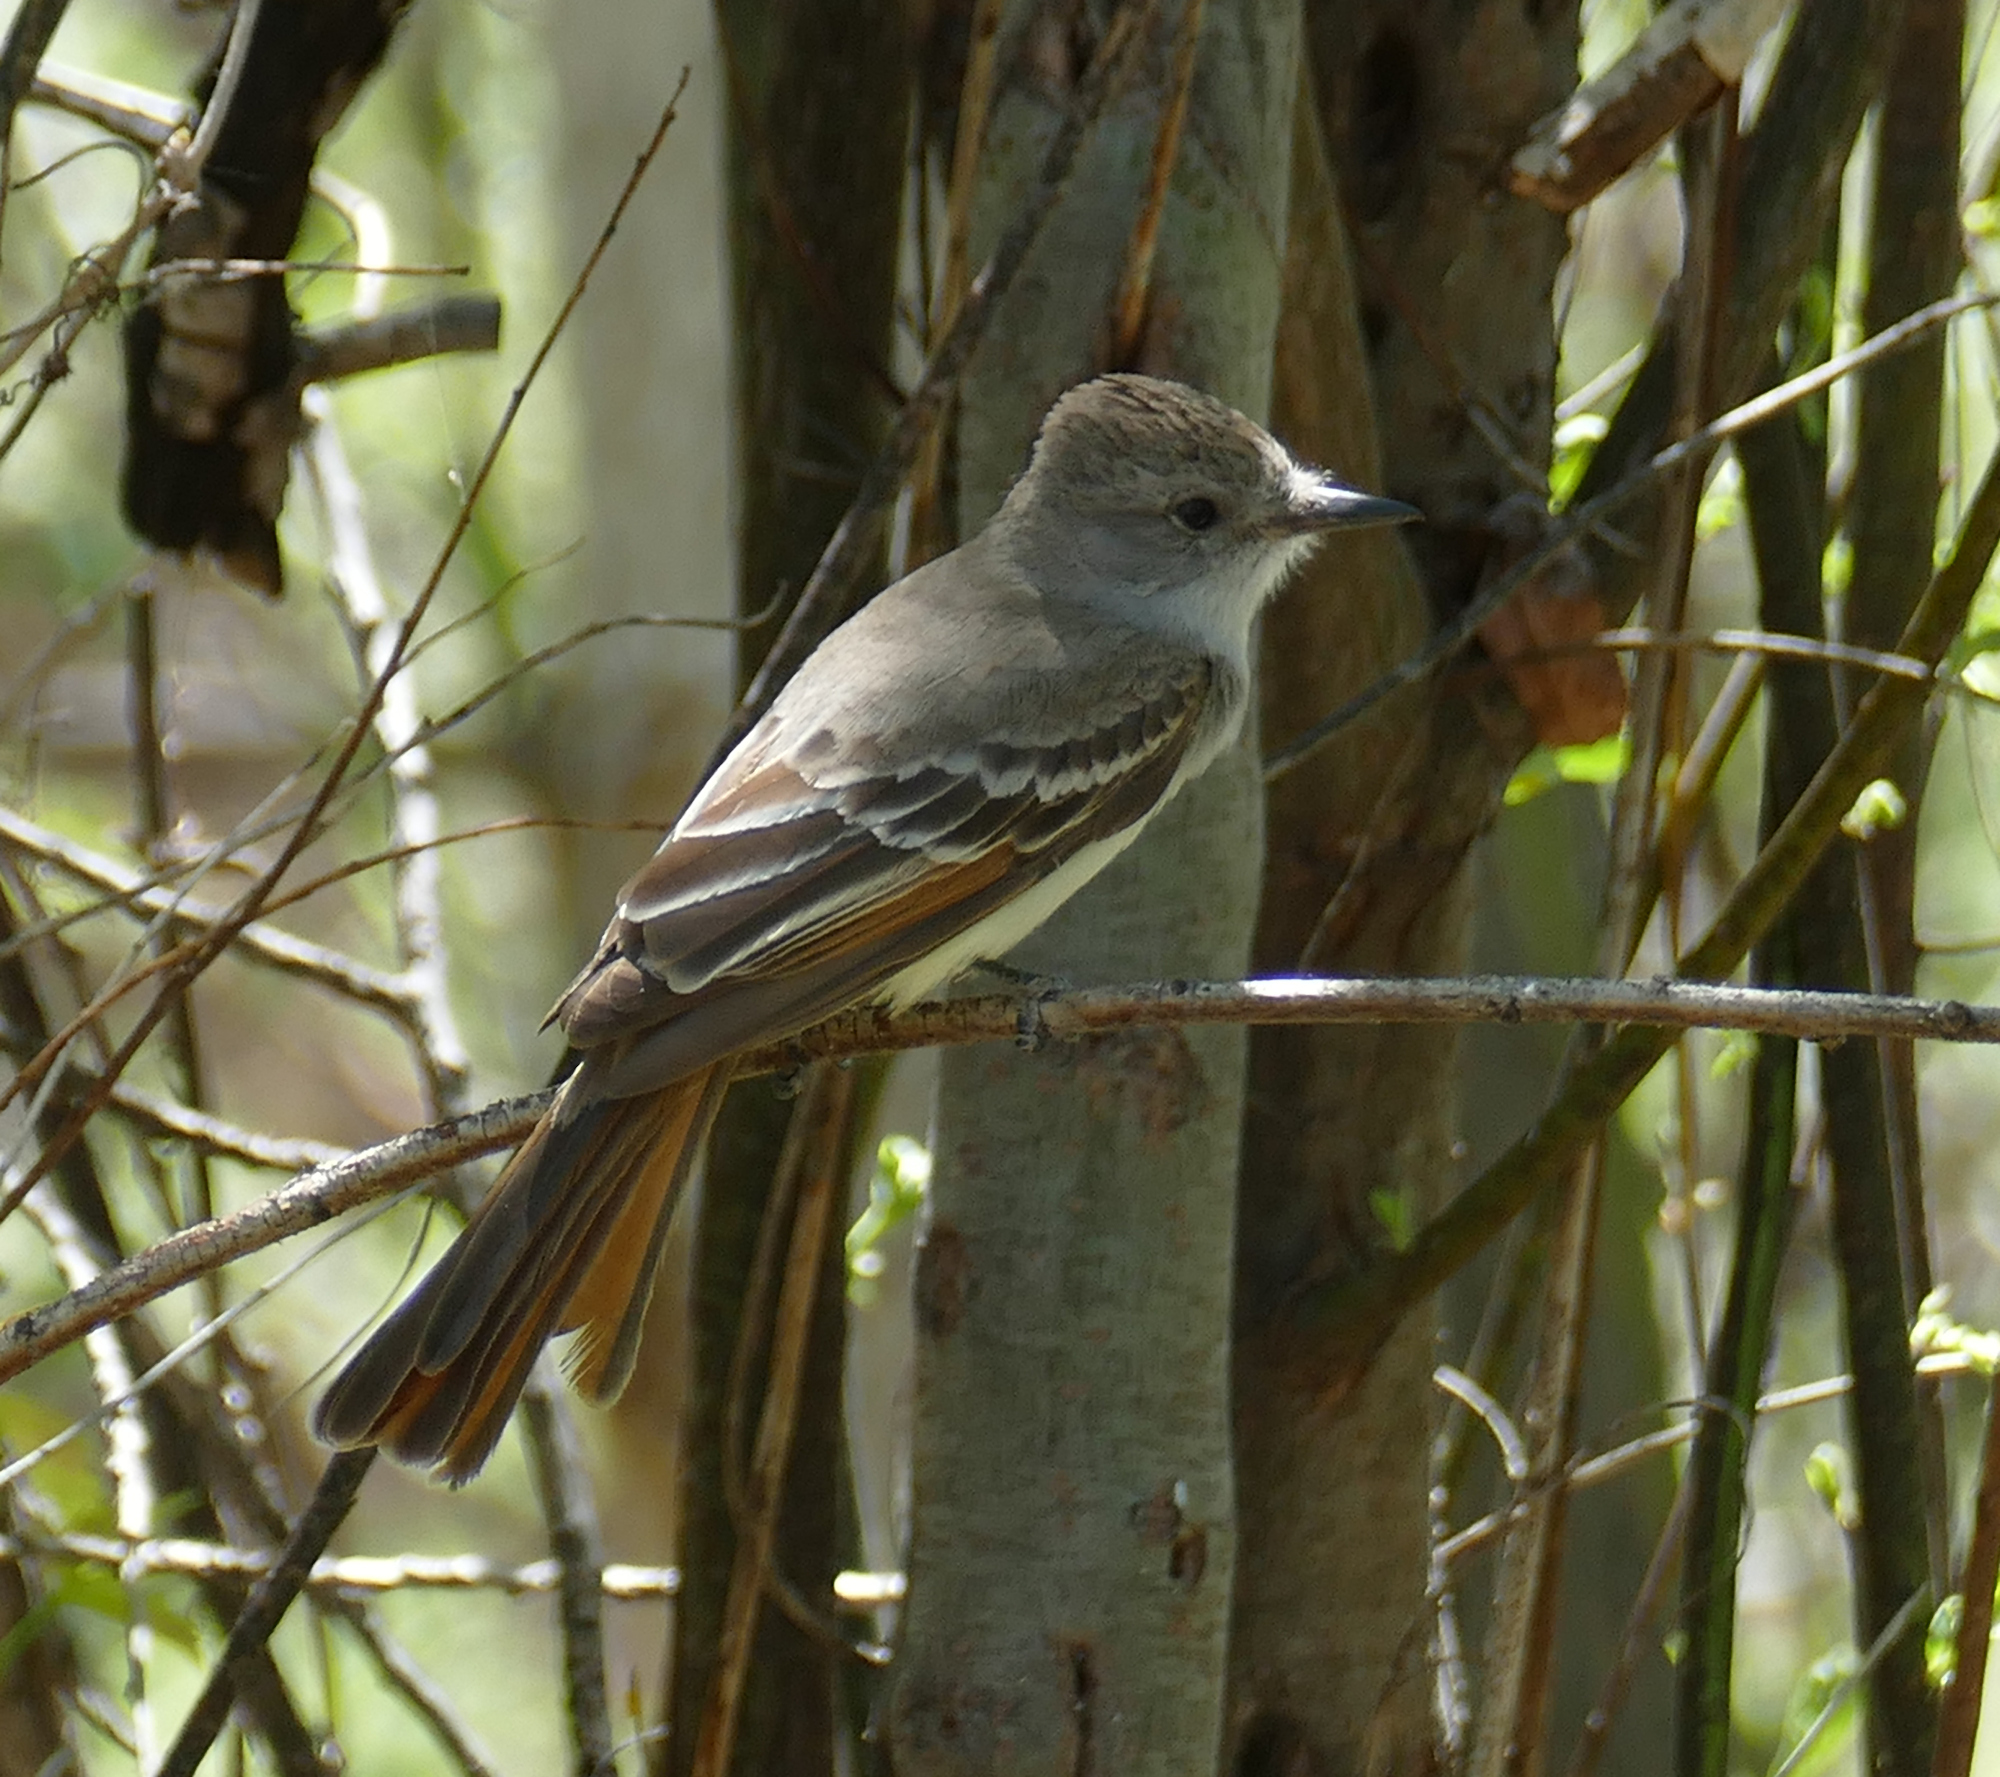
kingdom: Animalia
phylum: Chordata
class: Aves
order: Passeriformes
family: Tyrannidae
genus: Myiarchus
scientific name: Myiarchus cinerascens
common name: Ash-throated flycatcher
